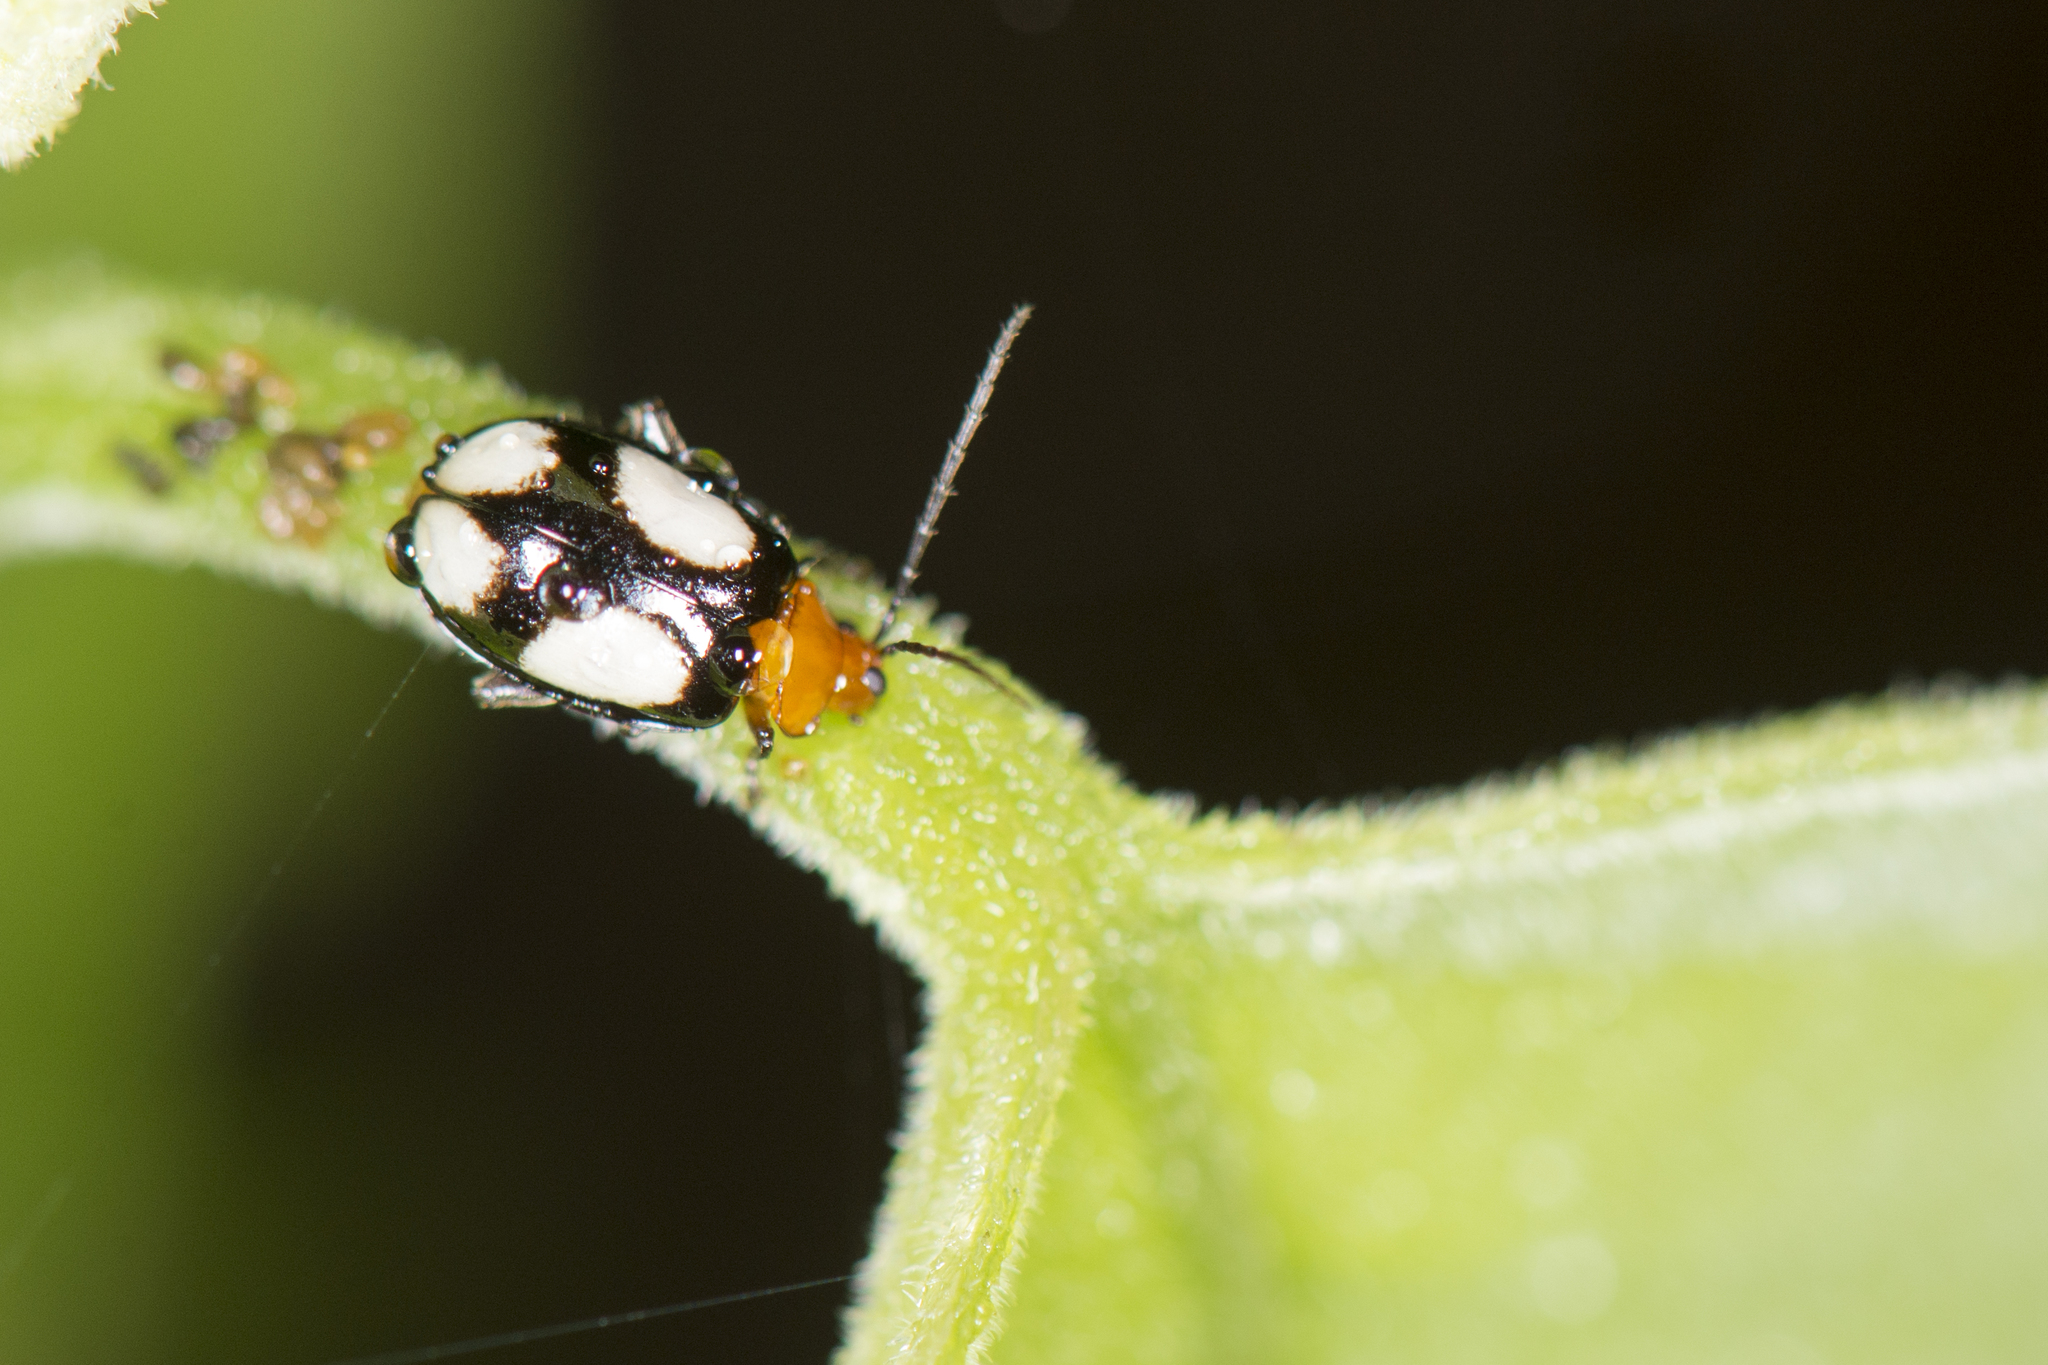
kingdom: Animalia
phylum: Arthropoda
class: Insecta
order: Coleoptera
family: Chrysomelidae
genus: Hemipyxis
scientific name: Hemipyxis quadripustulata
